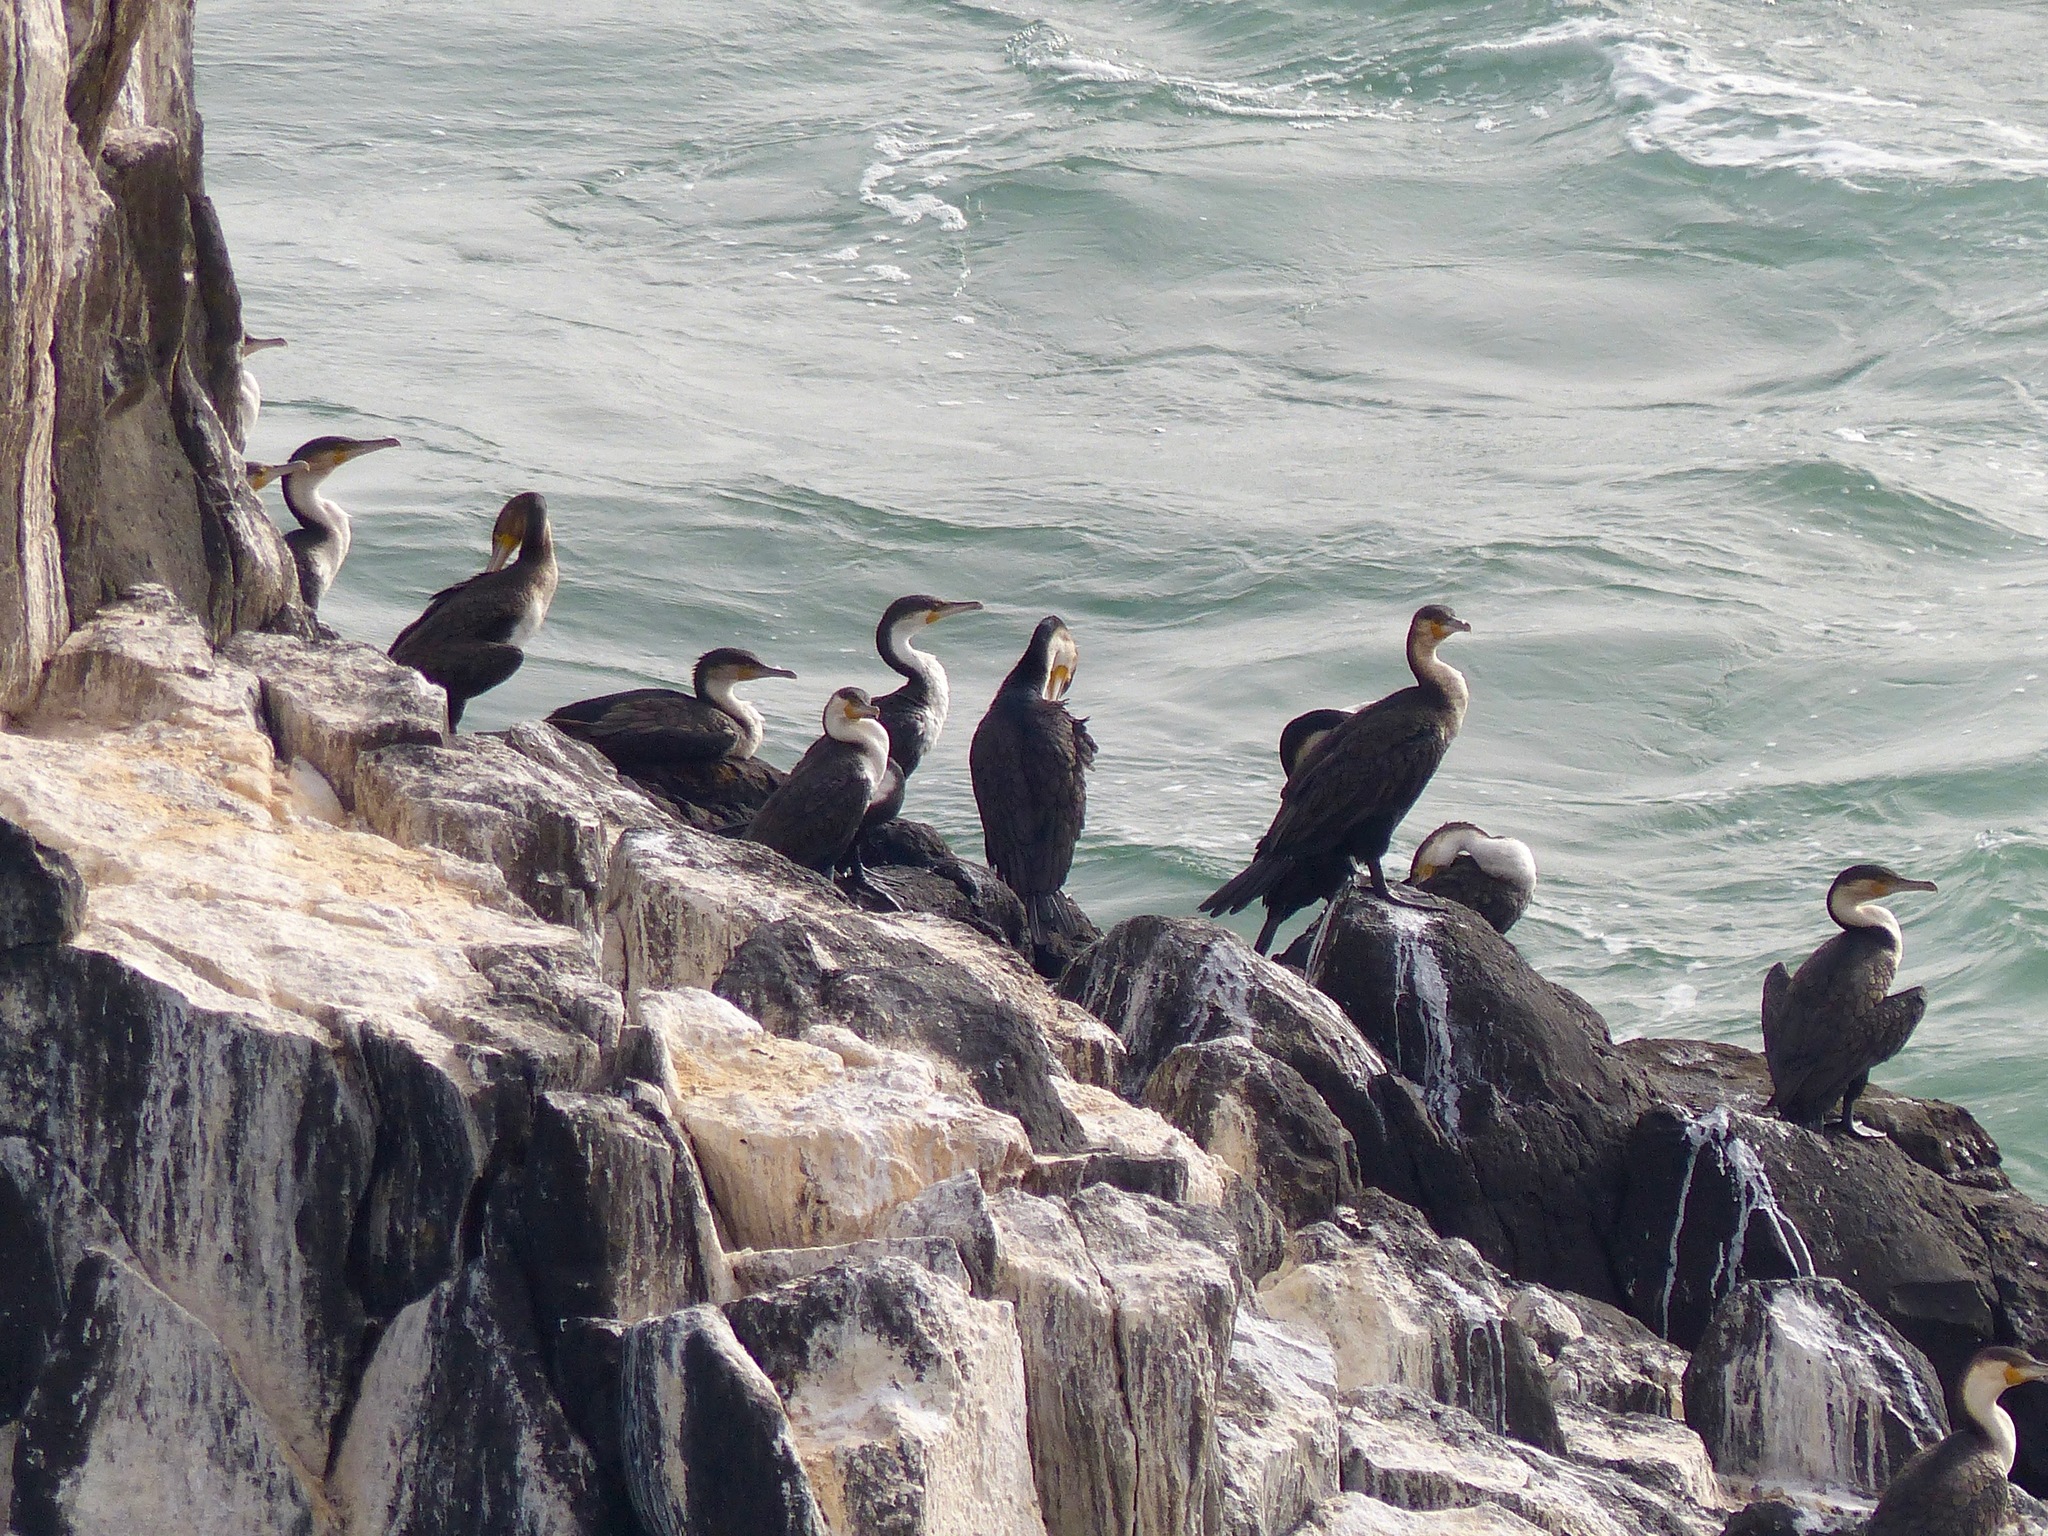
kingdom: Animalia
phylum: Chordata
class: Aves
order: Suliformes
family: Phalacrocoracidae
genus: Phalacrocorax
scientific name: Phalacrocorax carbo
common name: Great cormorant
